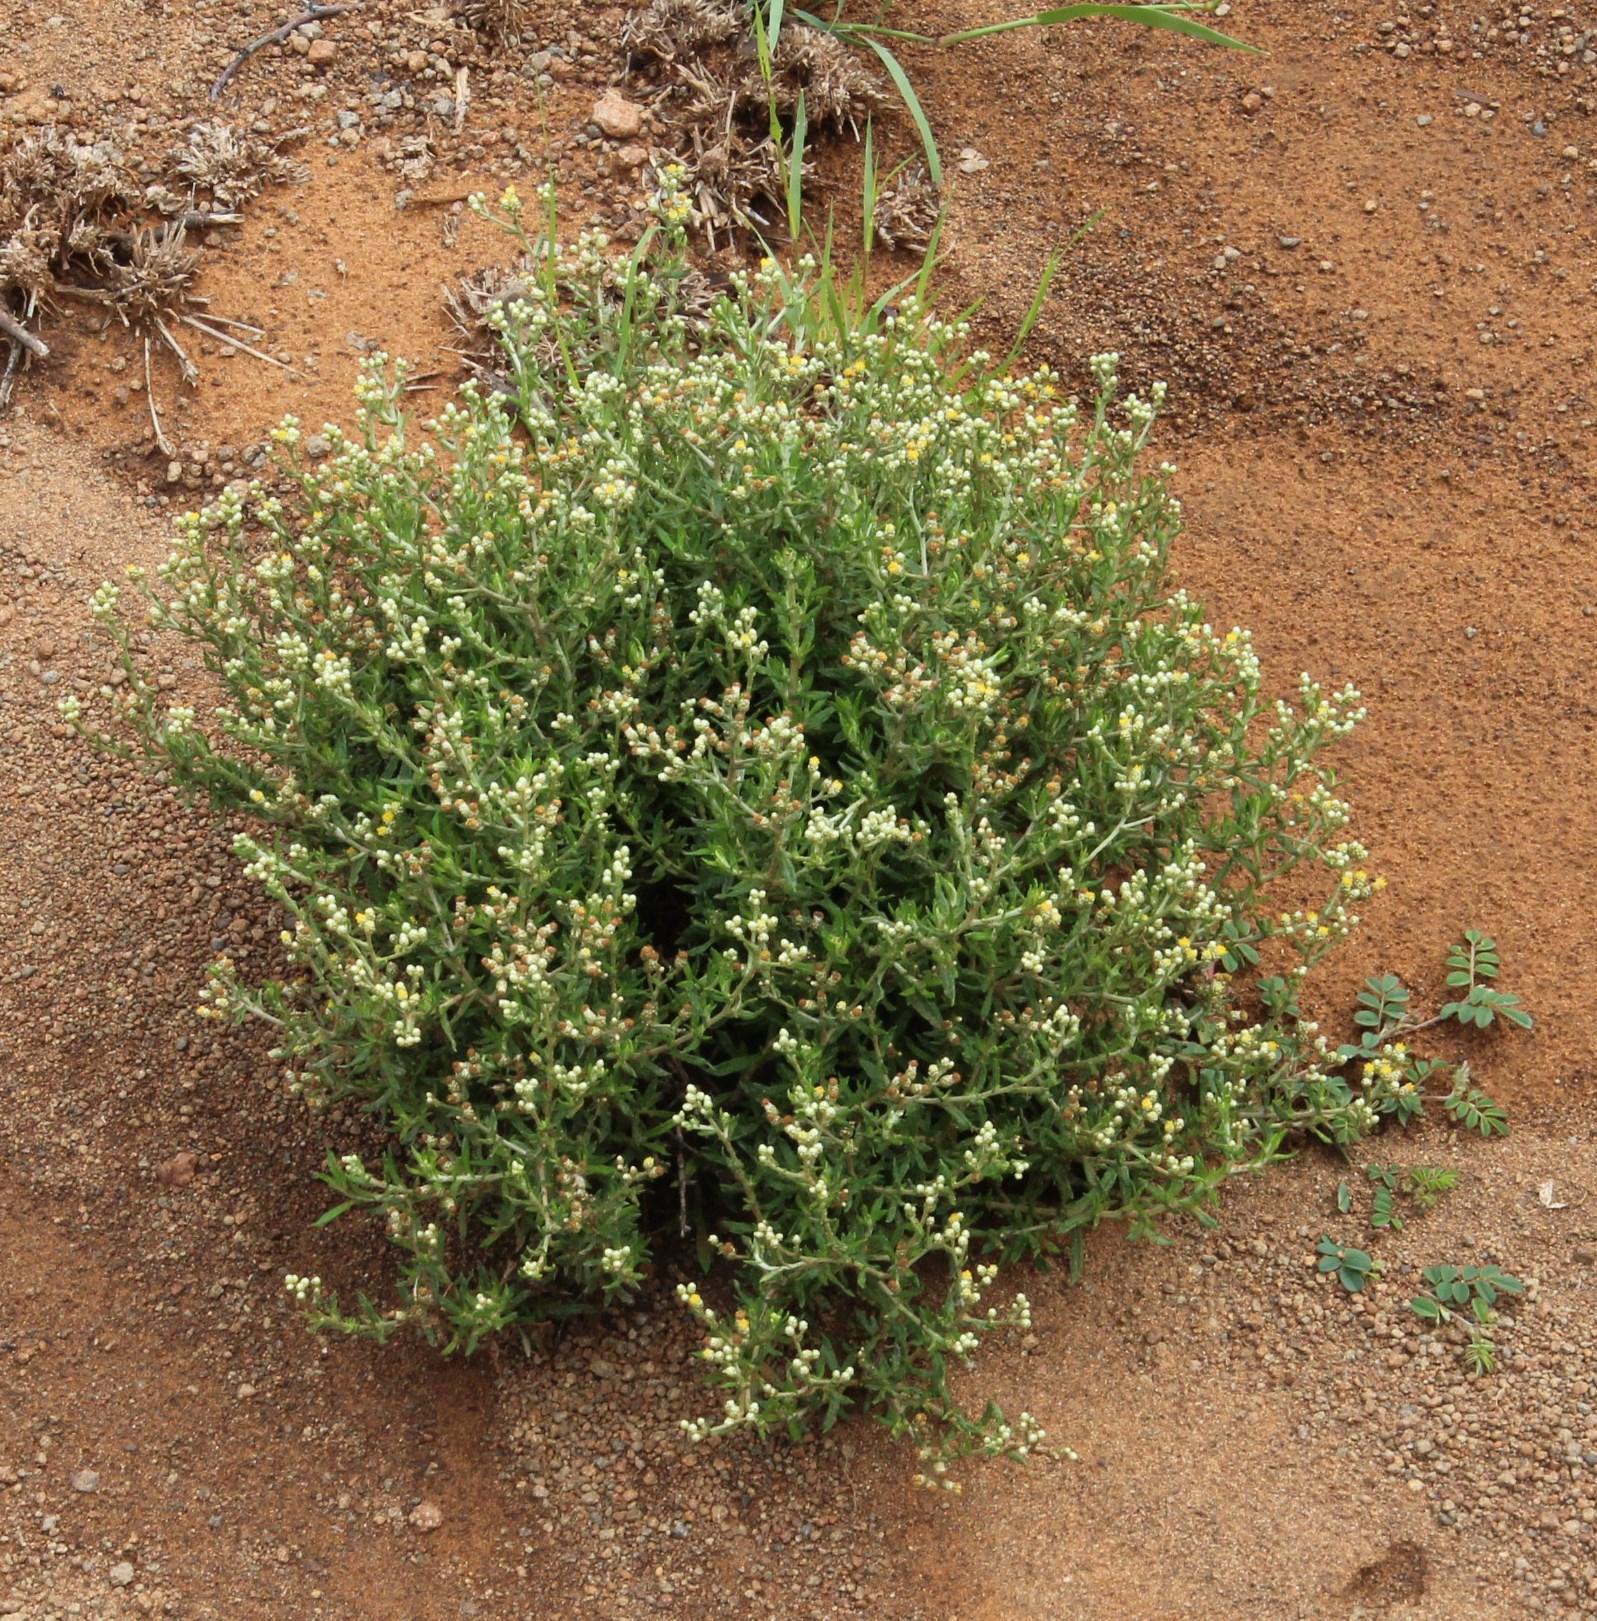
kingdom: Plantae
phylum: Tracheophyta
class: Magnoliopsida
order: Asterales
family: Asteraceae
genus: Helichrysum
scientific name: Helichrysum rosum
